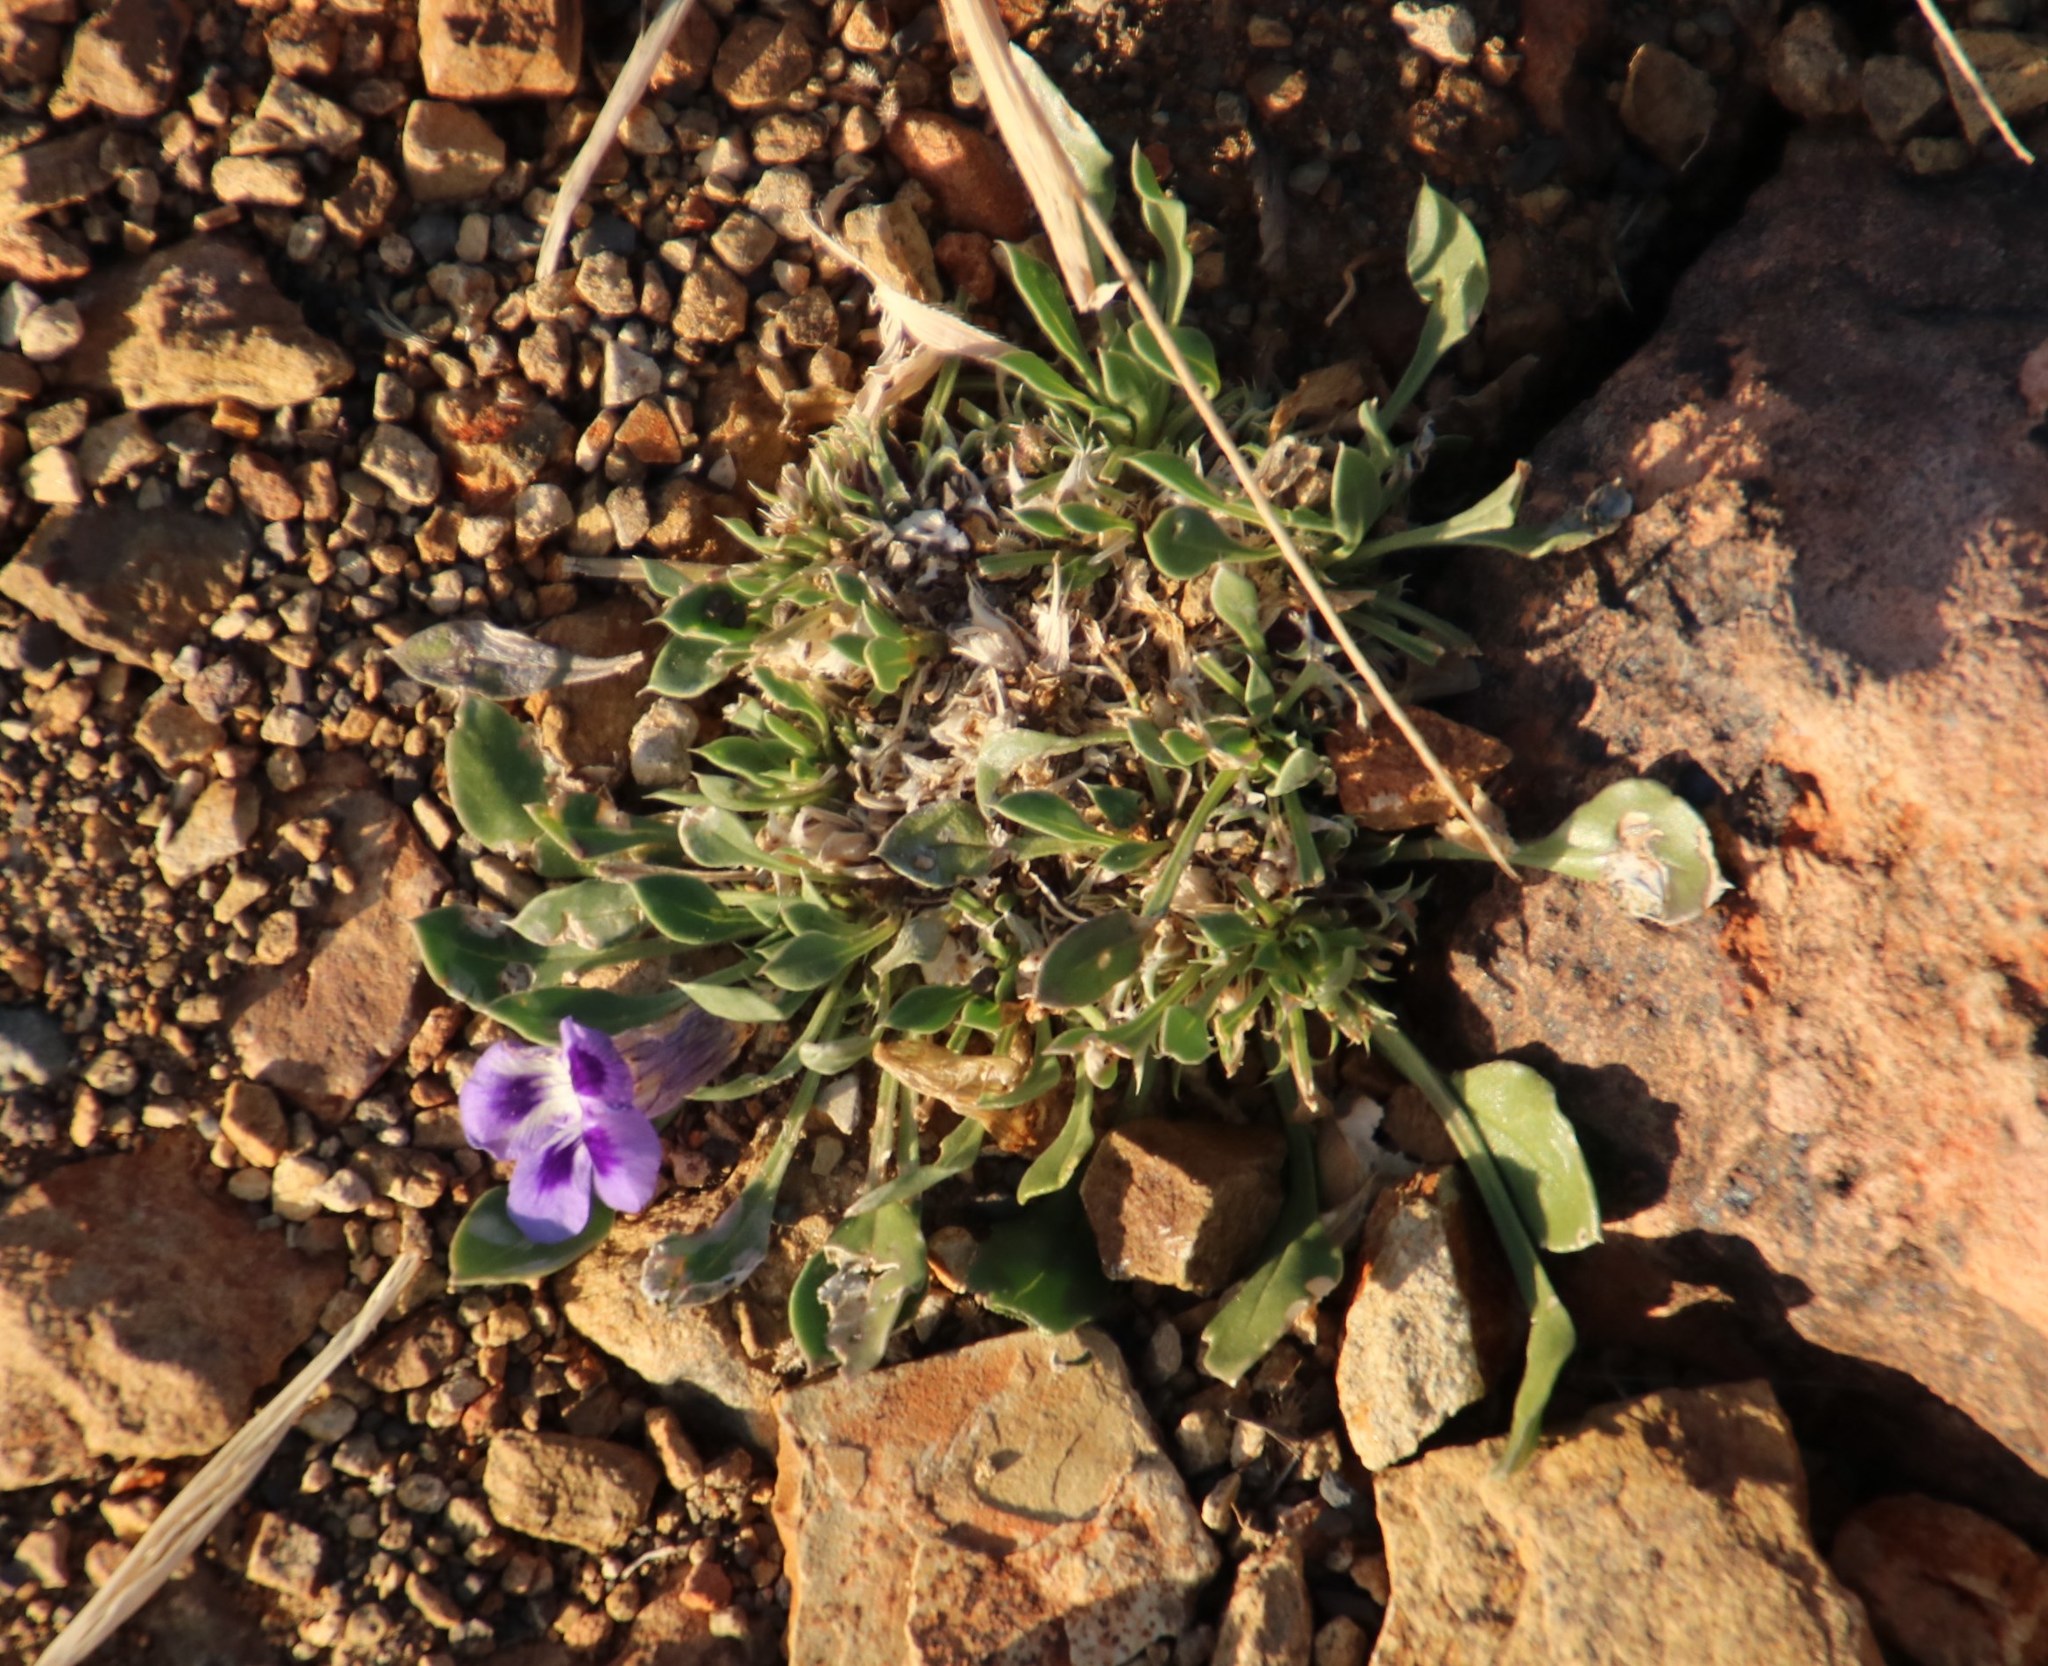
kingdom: Plantae
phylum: Tracheophyta
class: Magnoliopsida
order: Lamiales
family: Scrophulariaceae
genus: Aptosimum
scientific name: Aptosimum indivisum
